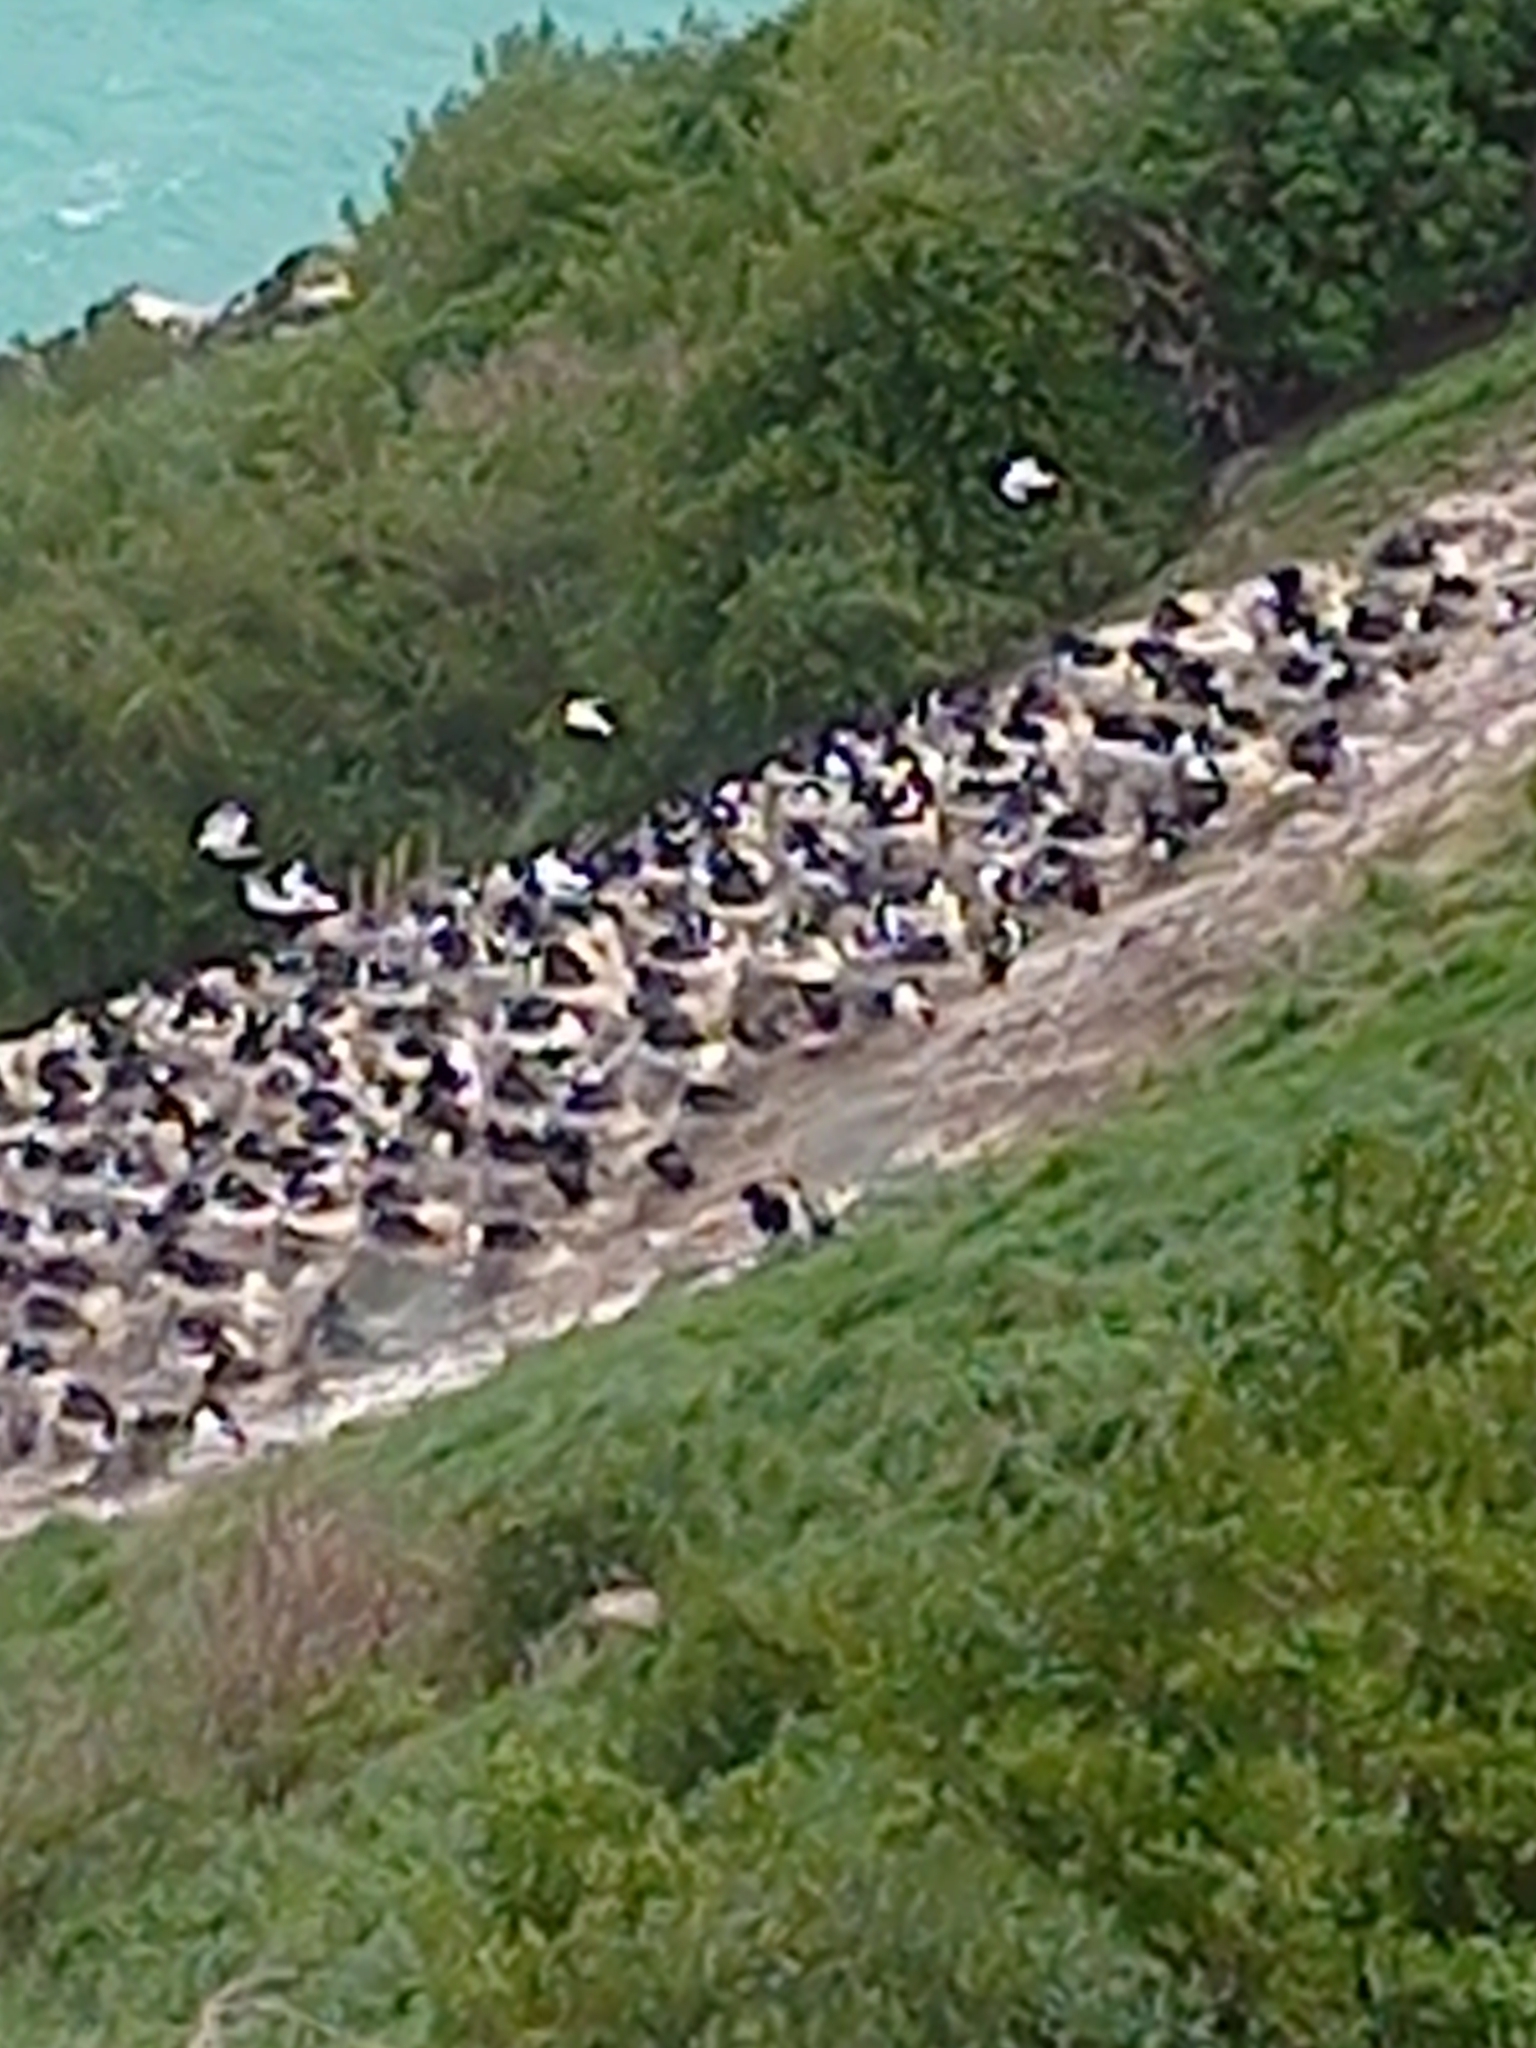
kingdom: Animalia
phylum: Chordata
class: Aves
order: Suliformes
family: Phalacrocoracidae
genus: Leucocarbo
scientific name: Leucocarbo chalconotus
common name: Stewart shag
